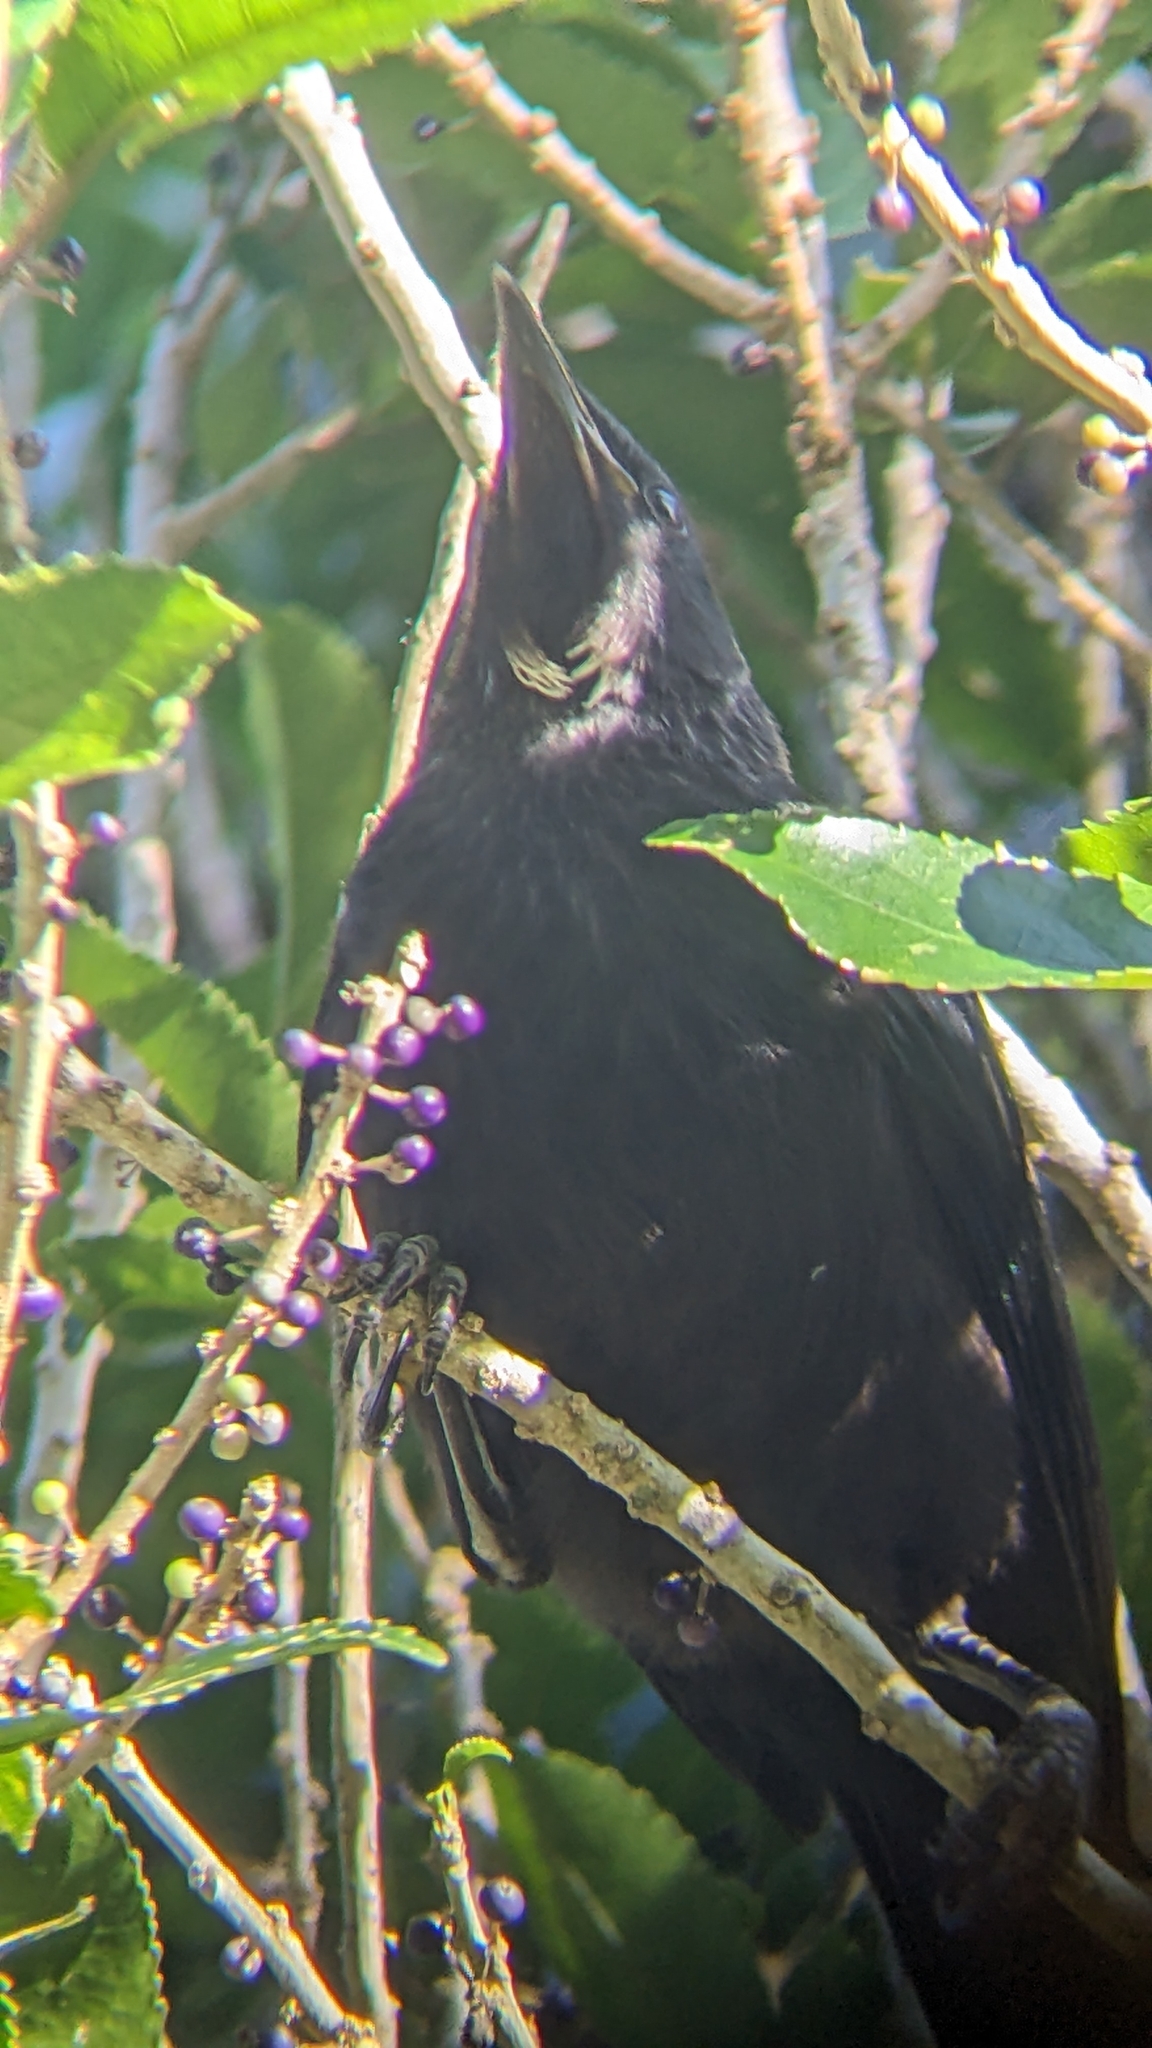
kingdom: Animalia
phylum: Chordata
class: Aves
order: Passeriformes
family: Meliphagidae
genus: Prosthemadera
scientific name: Prosthemadera novaeseelandiae
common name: Tui
